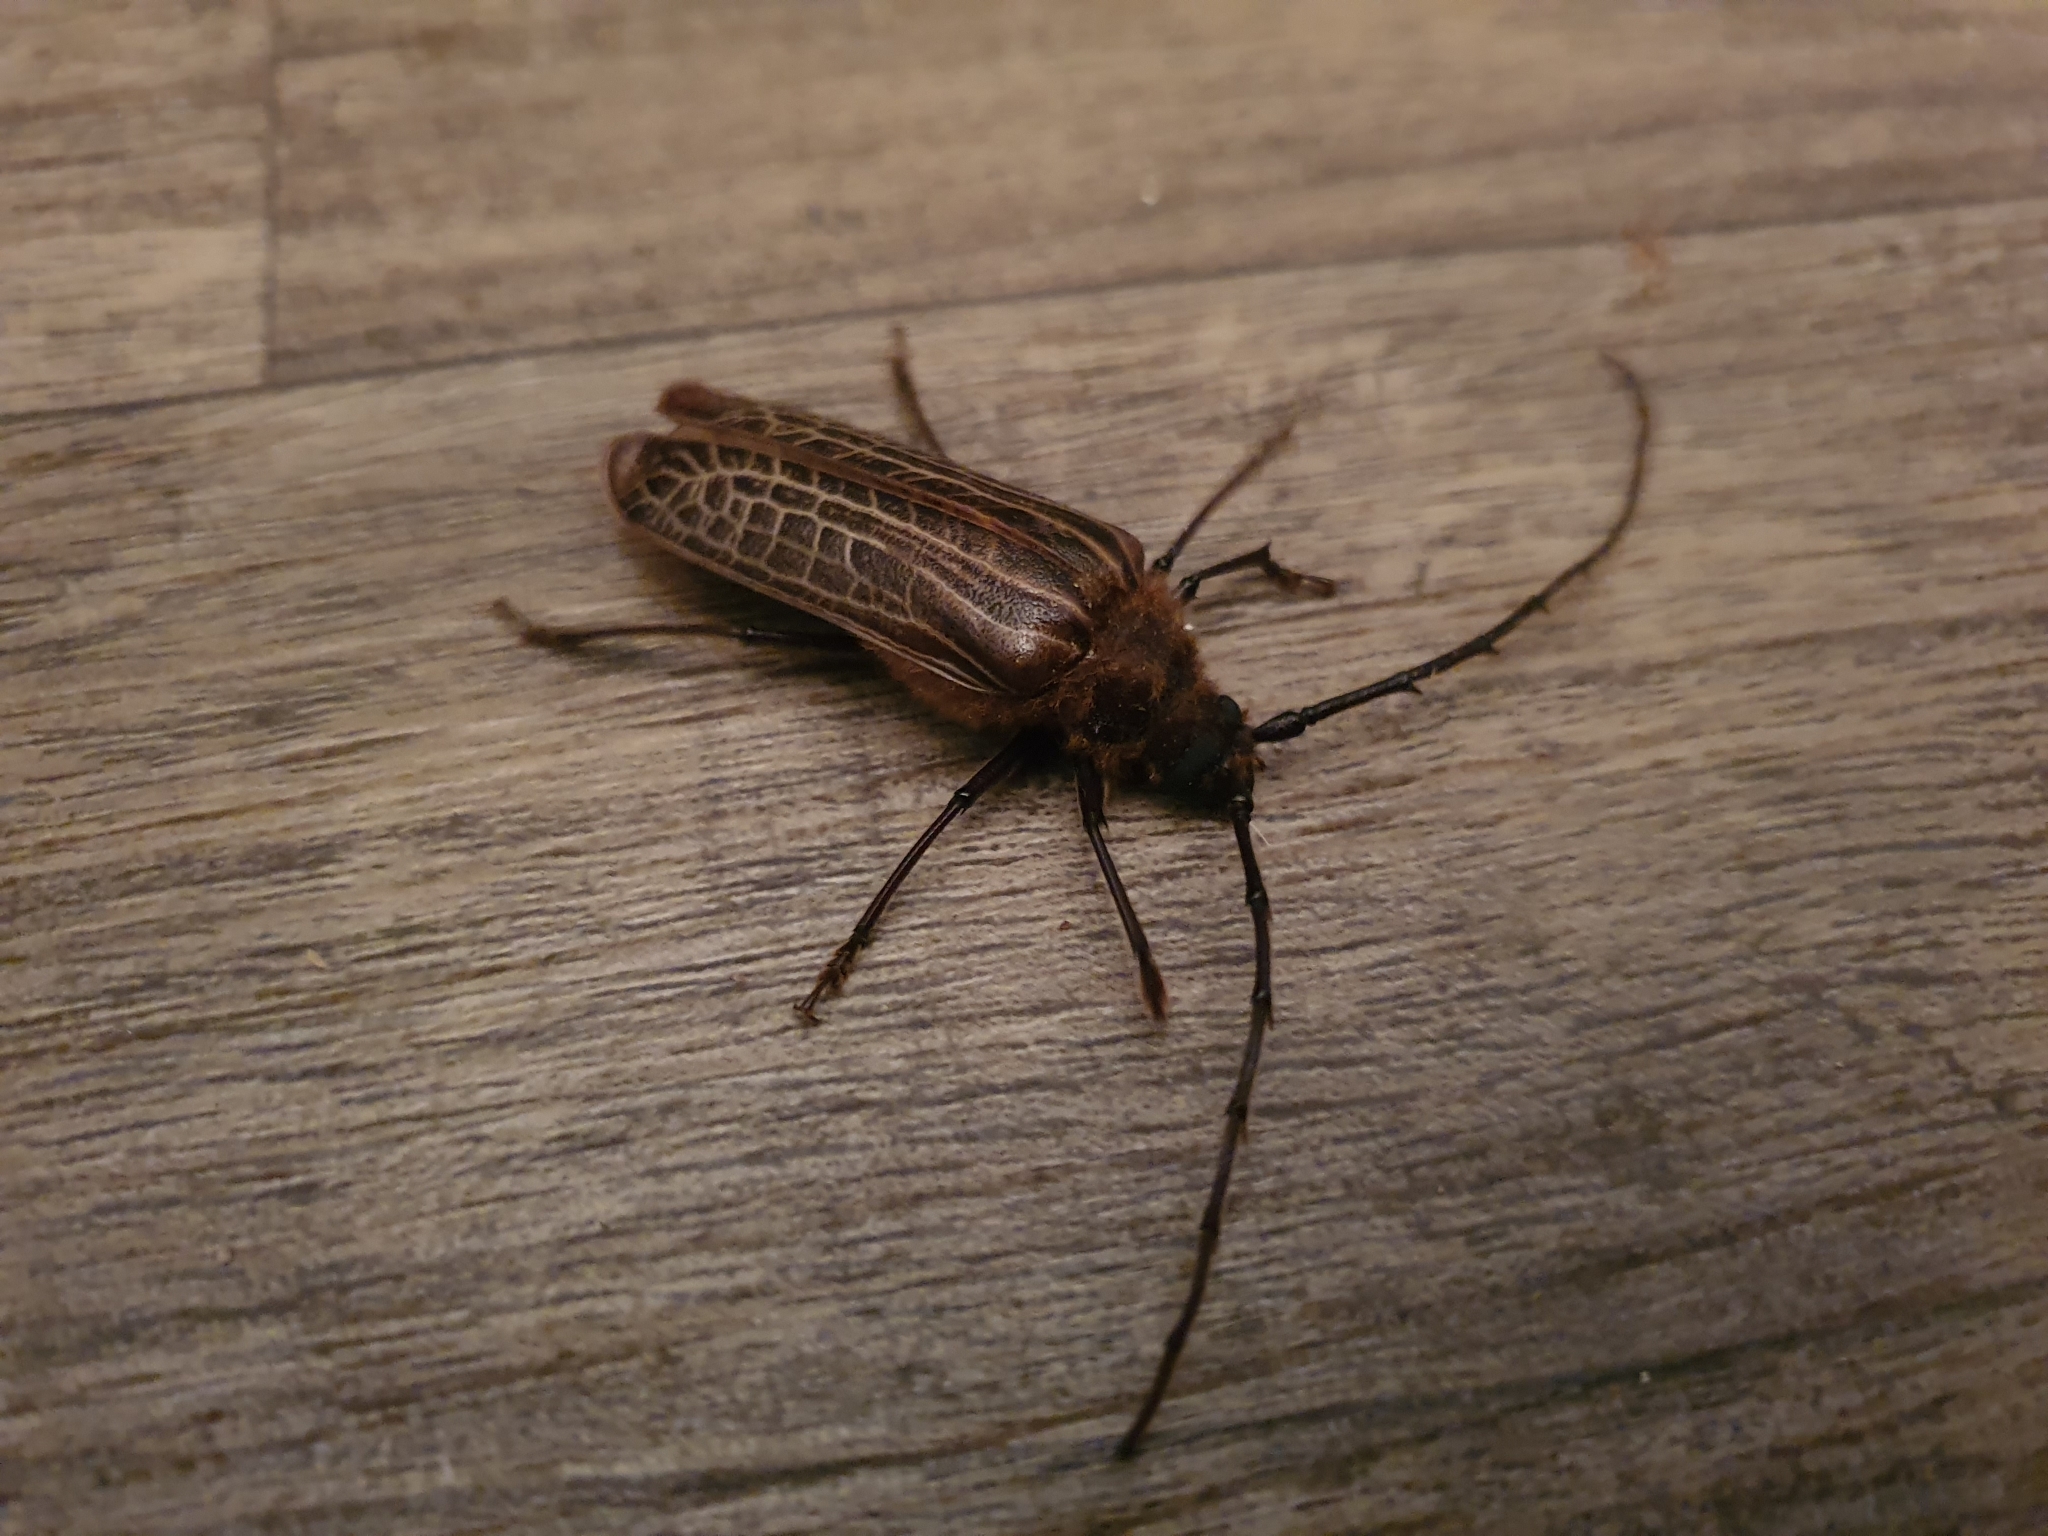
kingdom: Animalia
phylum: Arthropoda
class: Insecta
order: Coleoptera
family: Cerambycidae
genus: Prionoplus
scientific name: Prionoplus reticularis
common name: Huhu beetle
